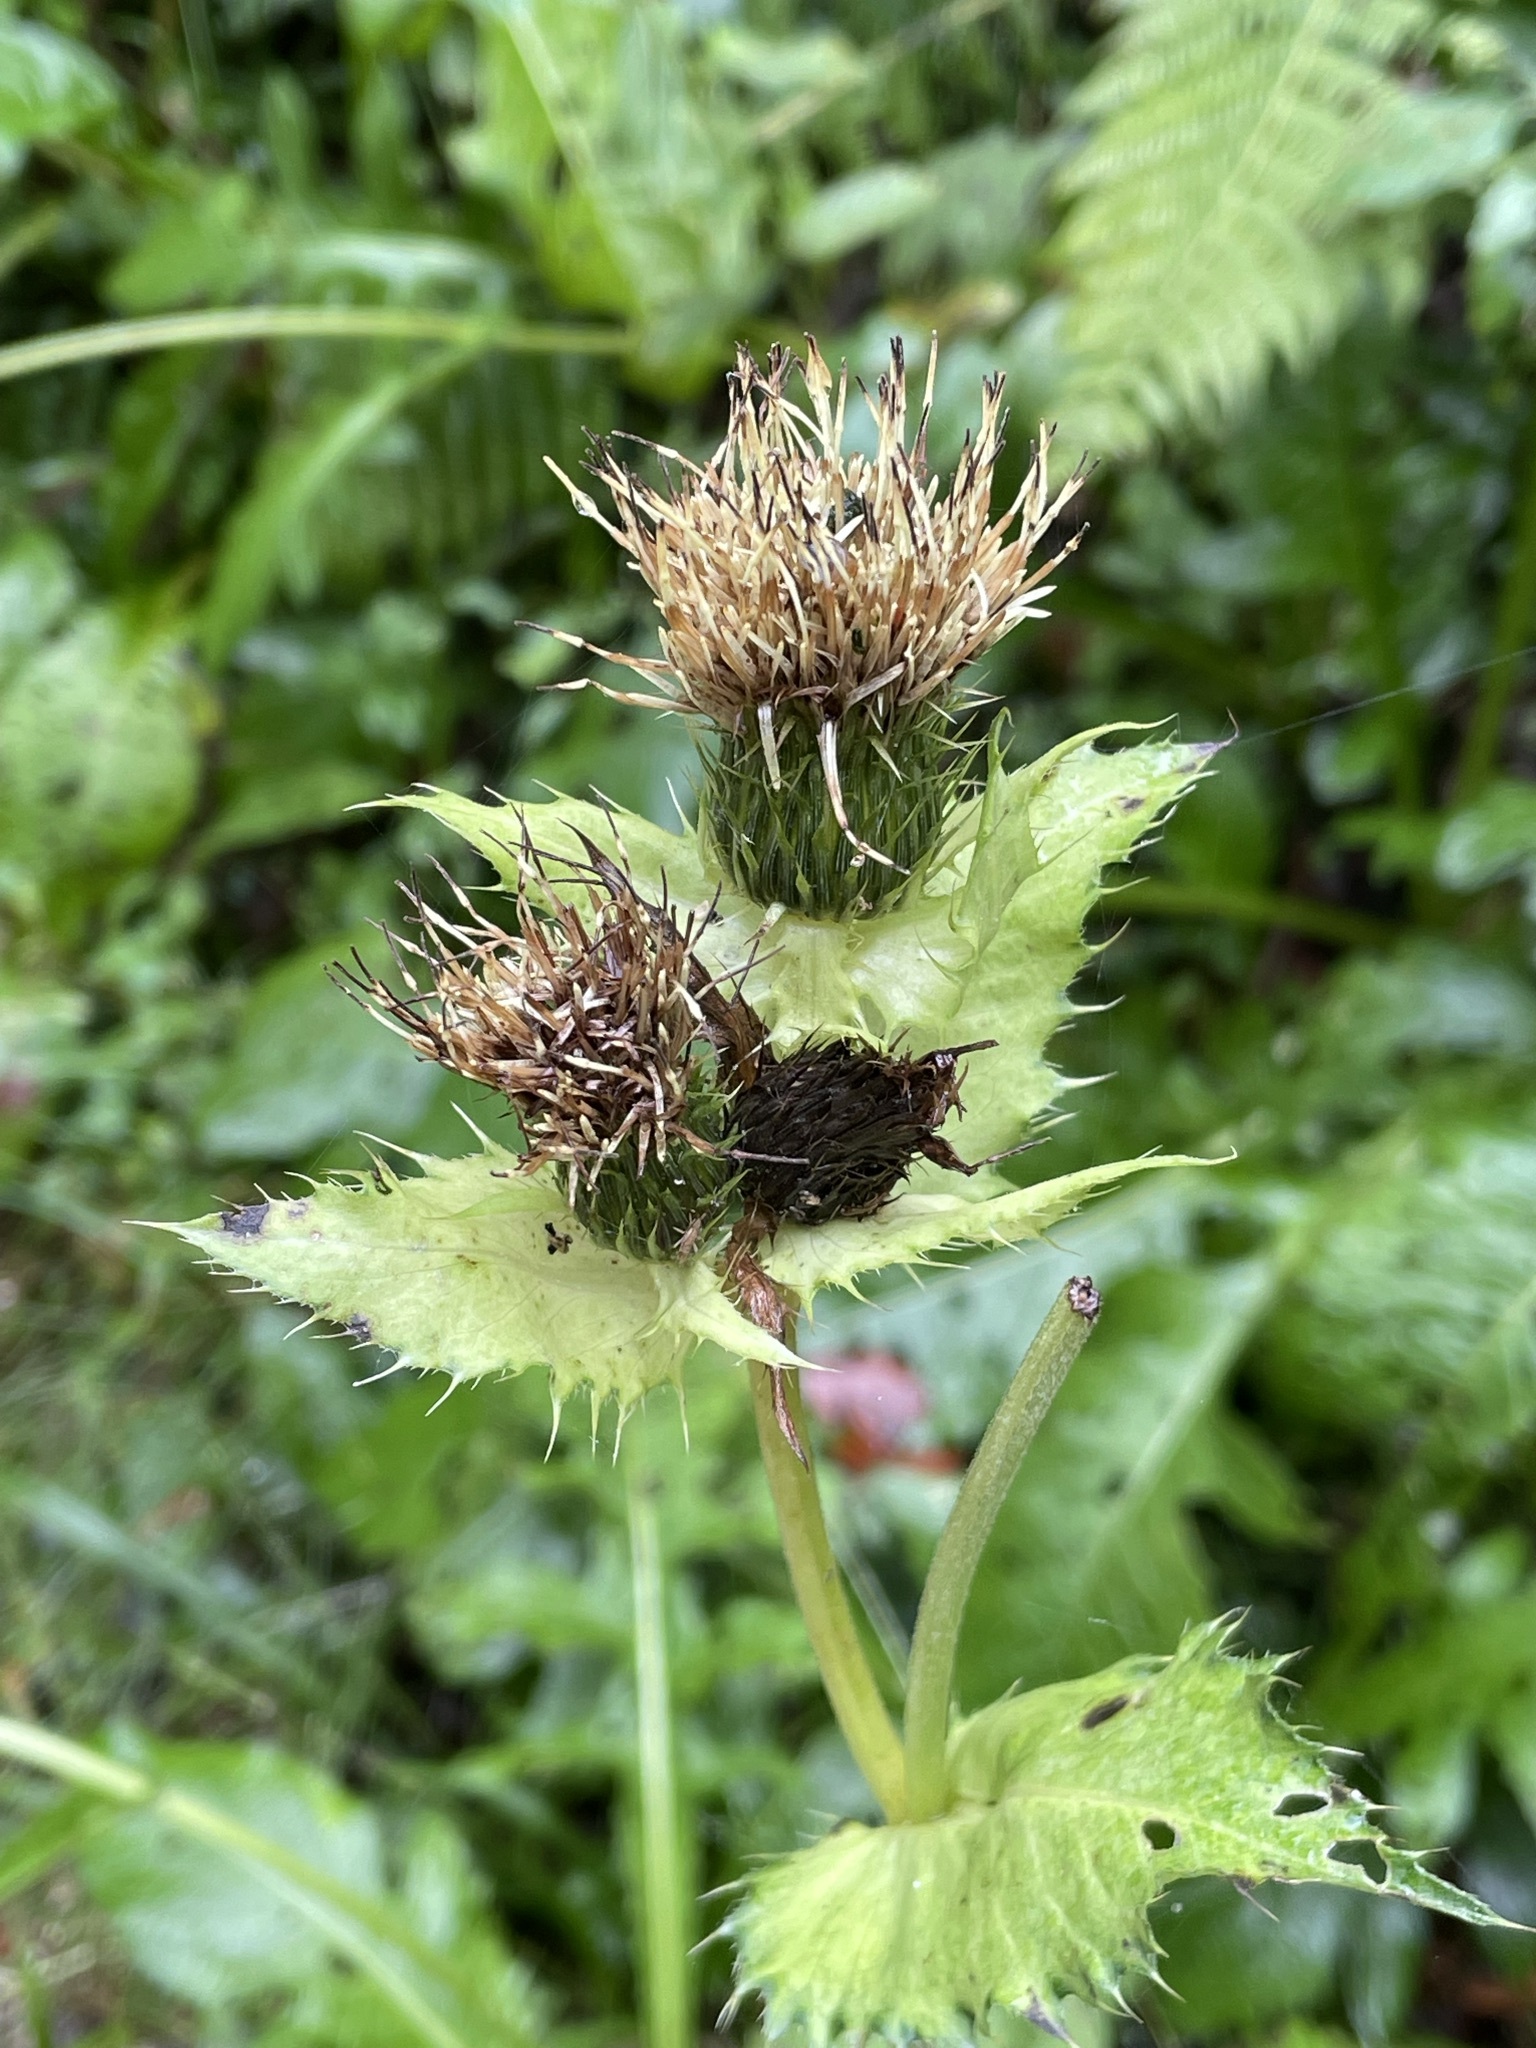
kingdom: Plantae
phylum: Tracheophyta
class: Magnoliopsida
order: Asterales
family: Asteraceae
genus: Cirsium
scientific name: Cirsium oleraceum
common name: Cabbage thistle
